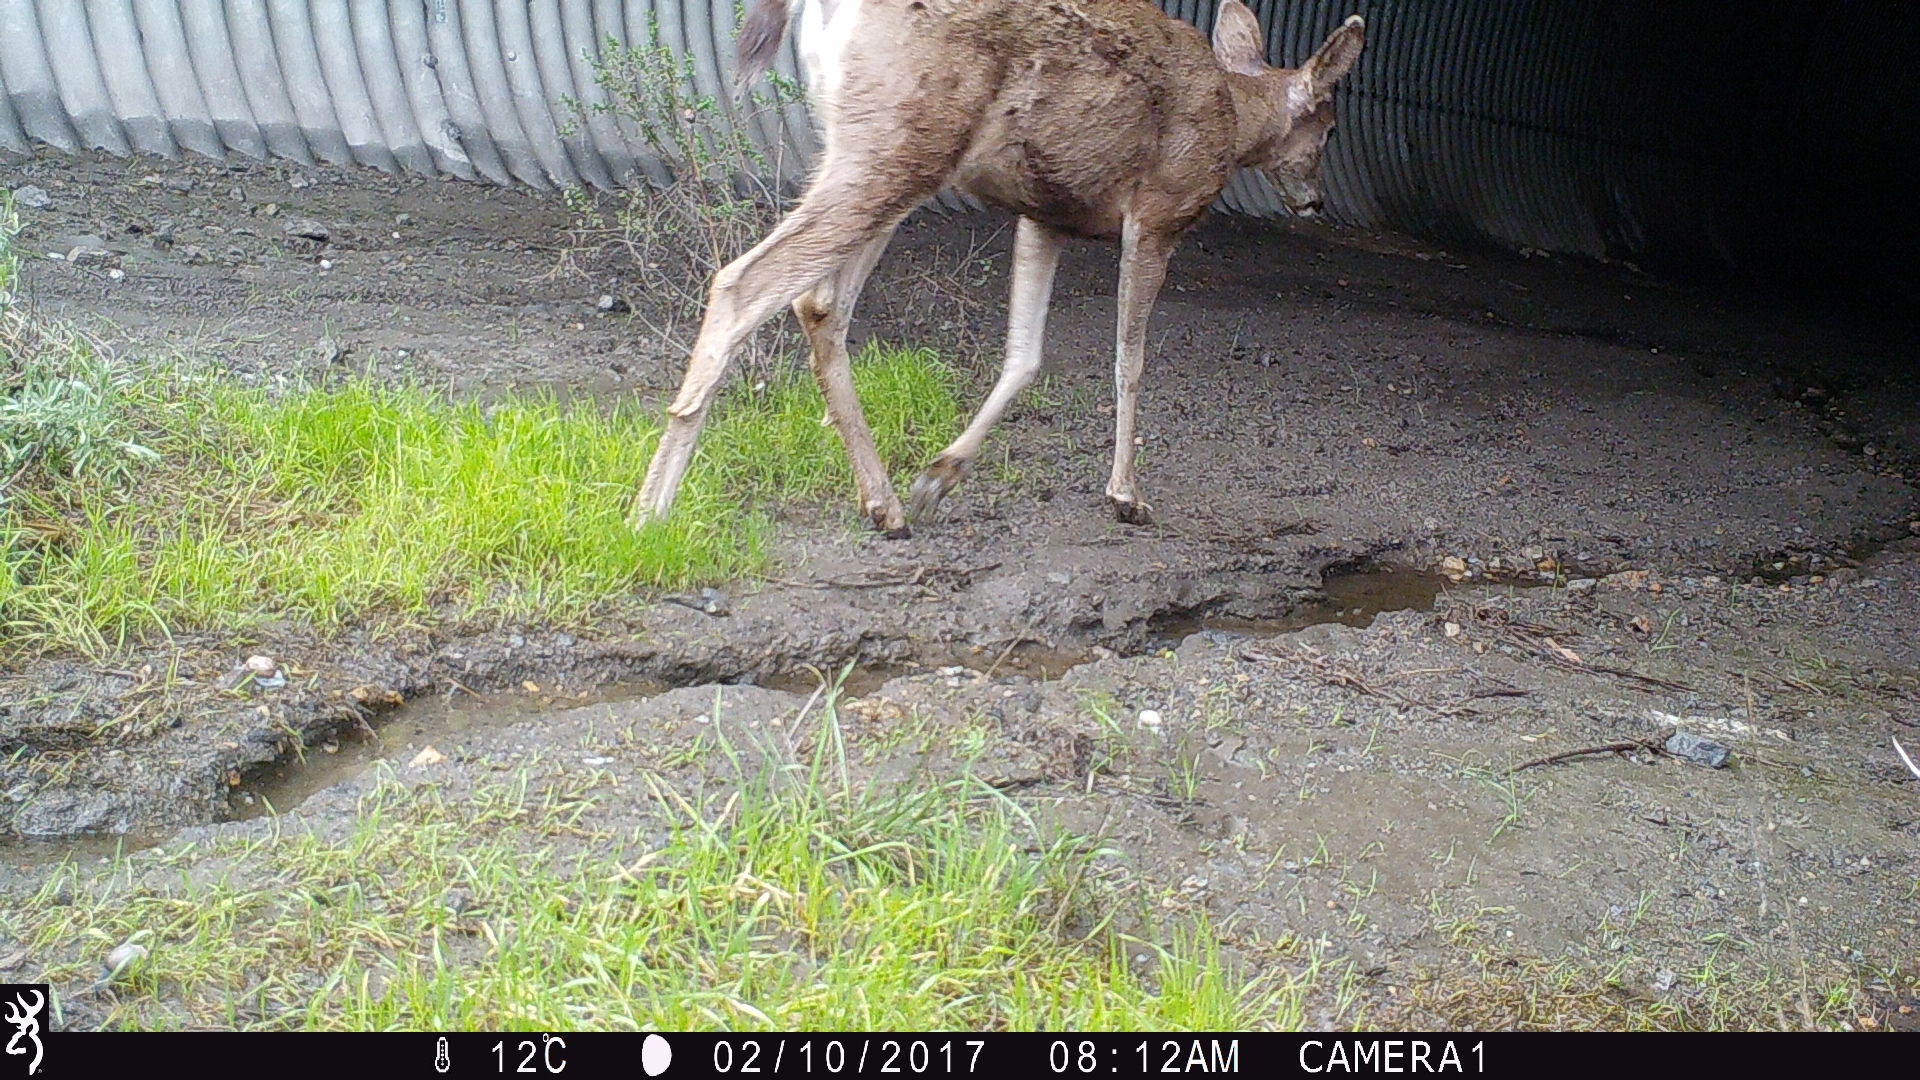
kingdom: Animalia
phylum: Chordata
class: Mammalia
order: Artiodactyla
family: Cervidae
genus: Odocoileus
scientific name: Odocoileus hemionus
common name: Mule deer
